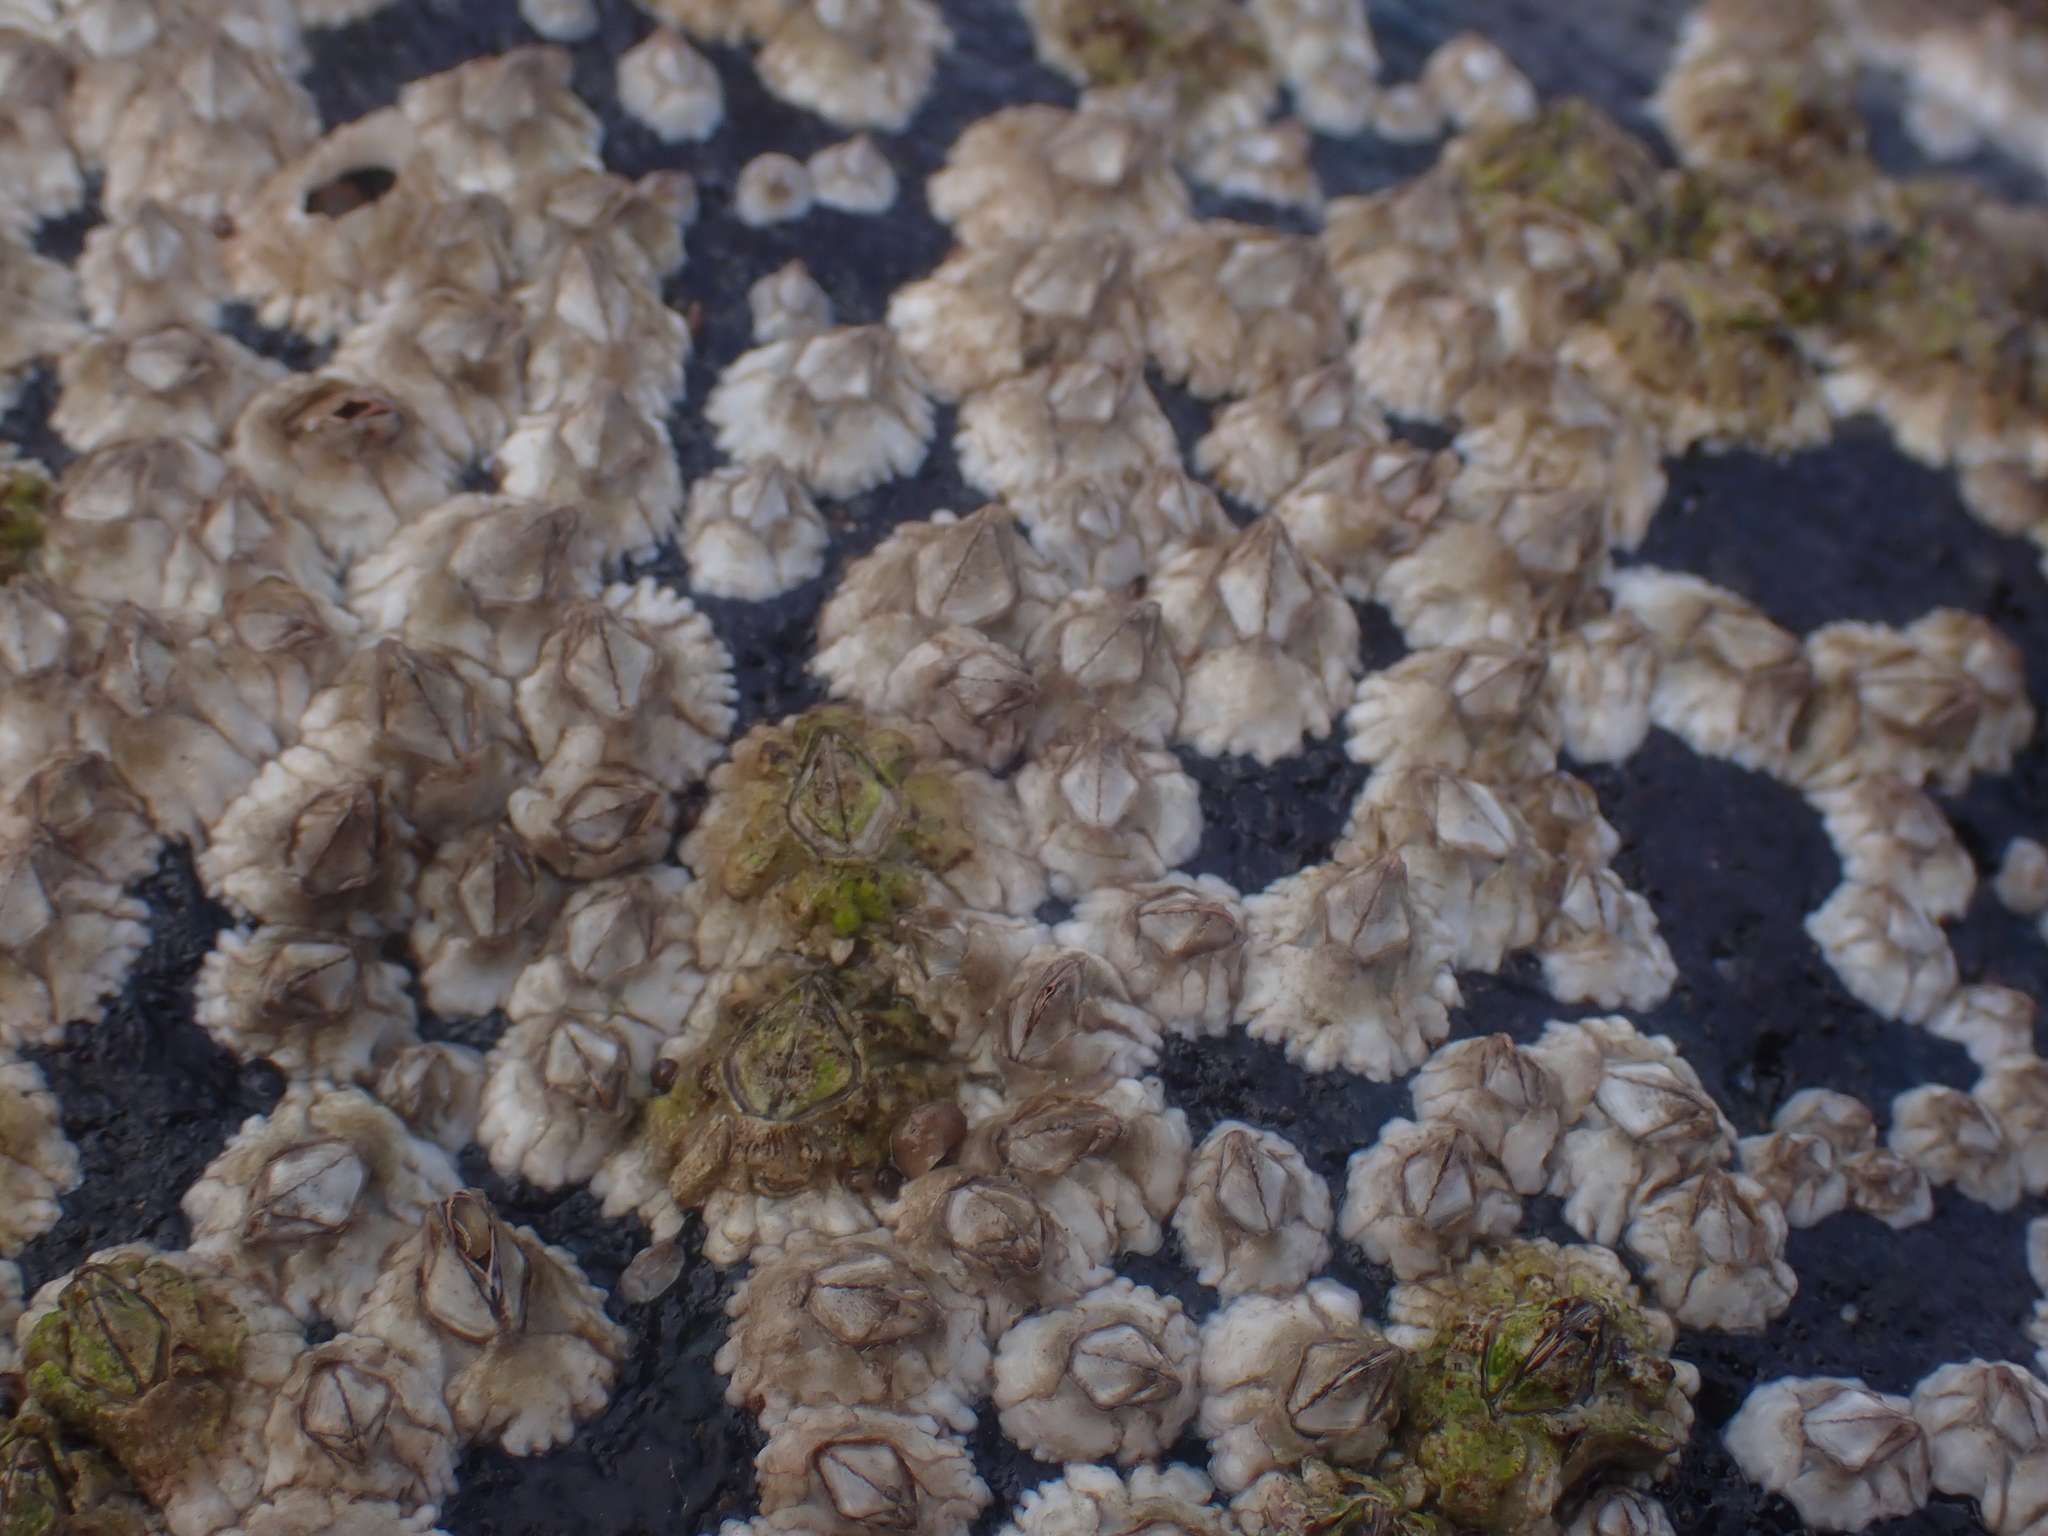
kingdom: Animalia
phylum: Arthropoda
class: Maxillopoda
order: Sessilia
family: Archaeobalanidae
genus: Semibalanus
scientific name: Semibalanus balanoides
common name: Acorn barnacle
